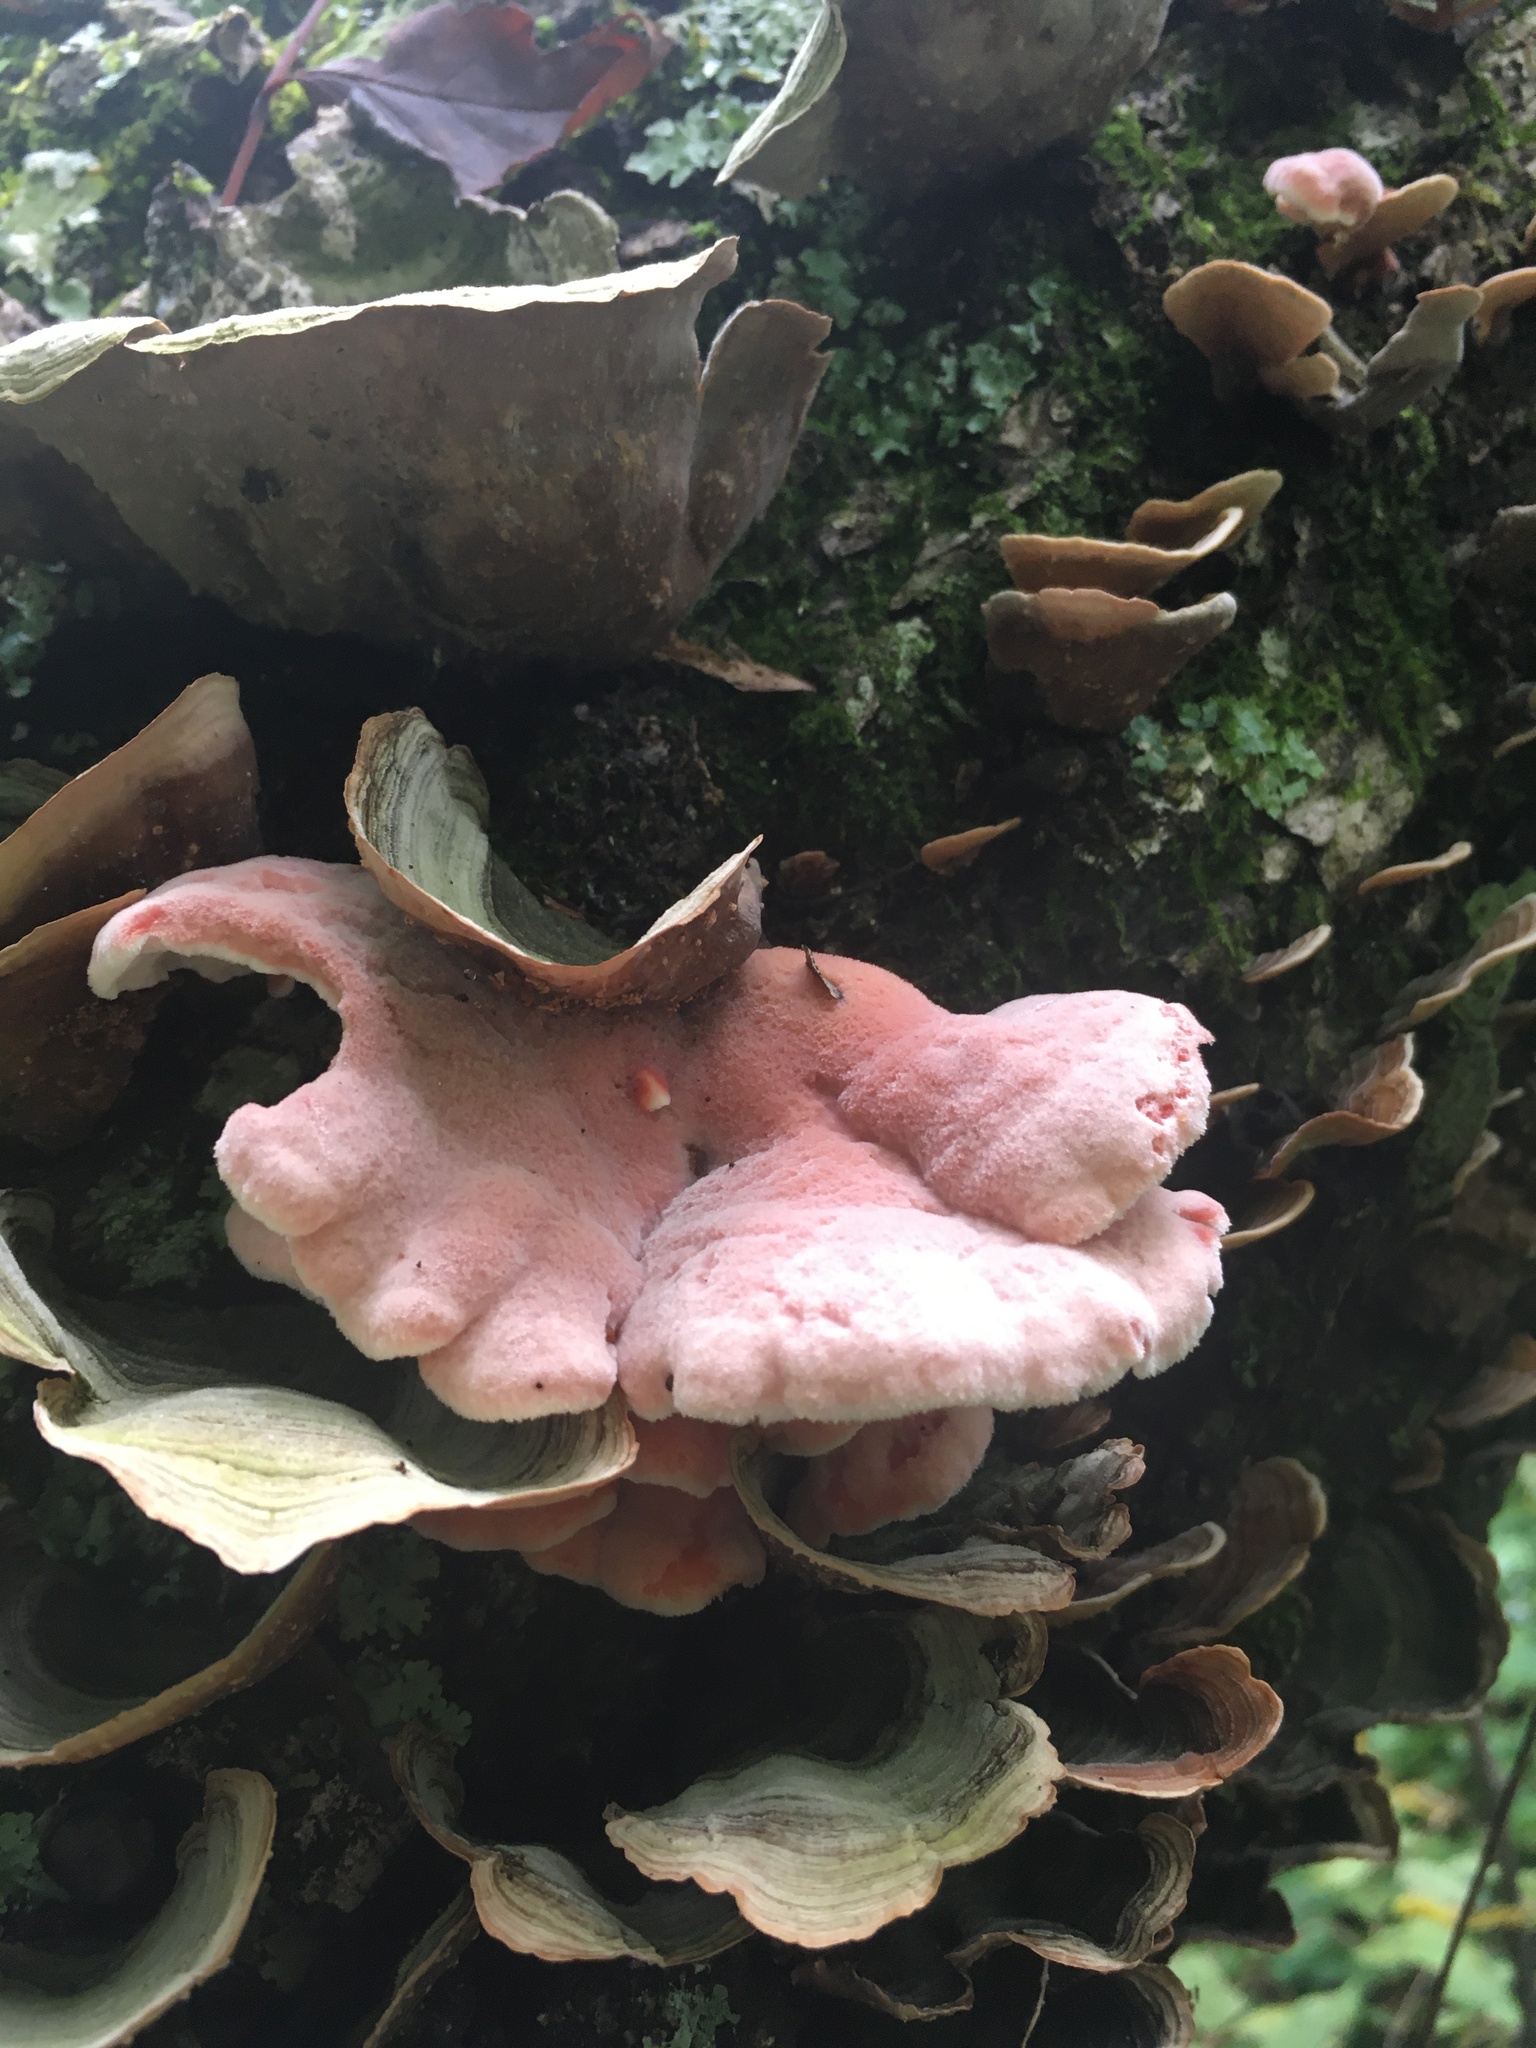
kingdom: Fungi
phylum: Basidiomycota
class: Agaricomycetes
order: Polyporales
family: Irpicaceae
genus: Byssomerulius
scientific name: Byssomerulius incarnatus
